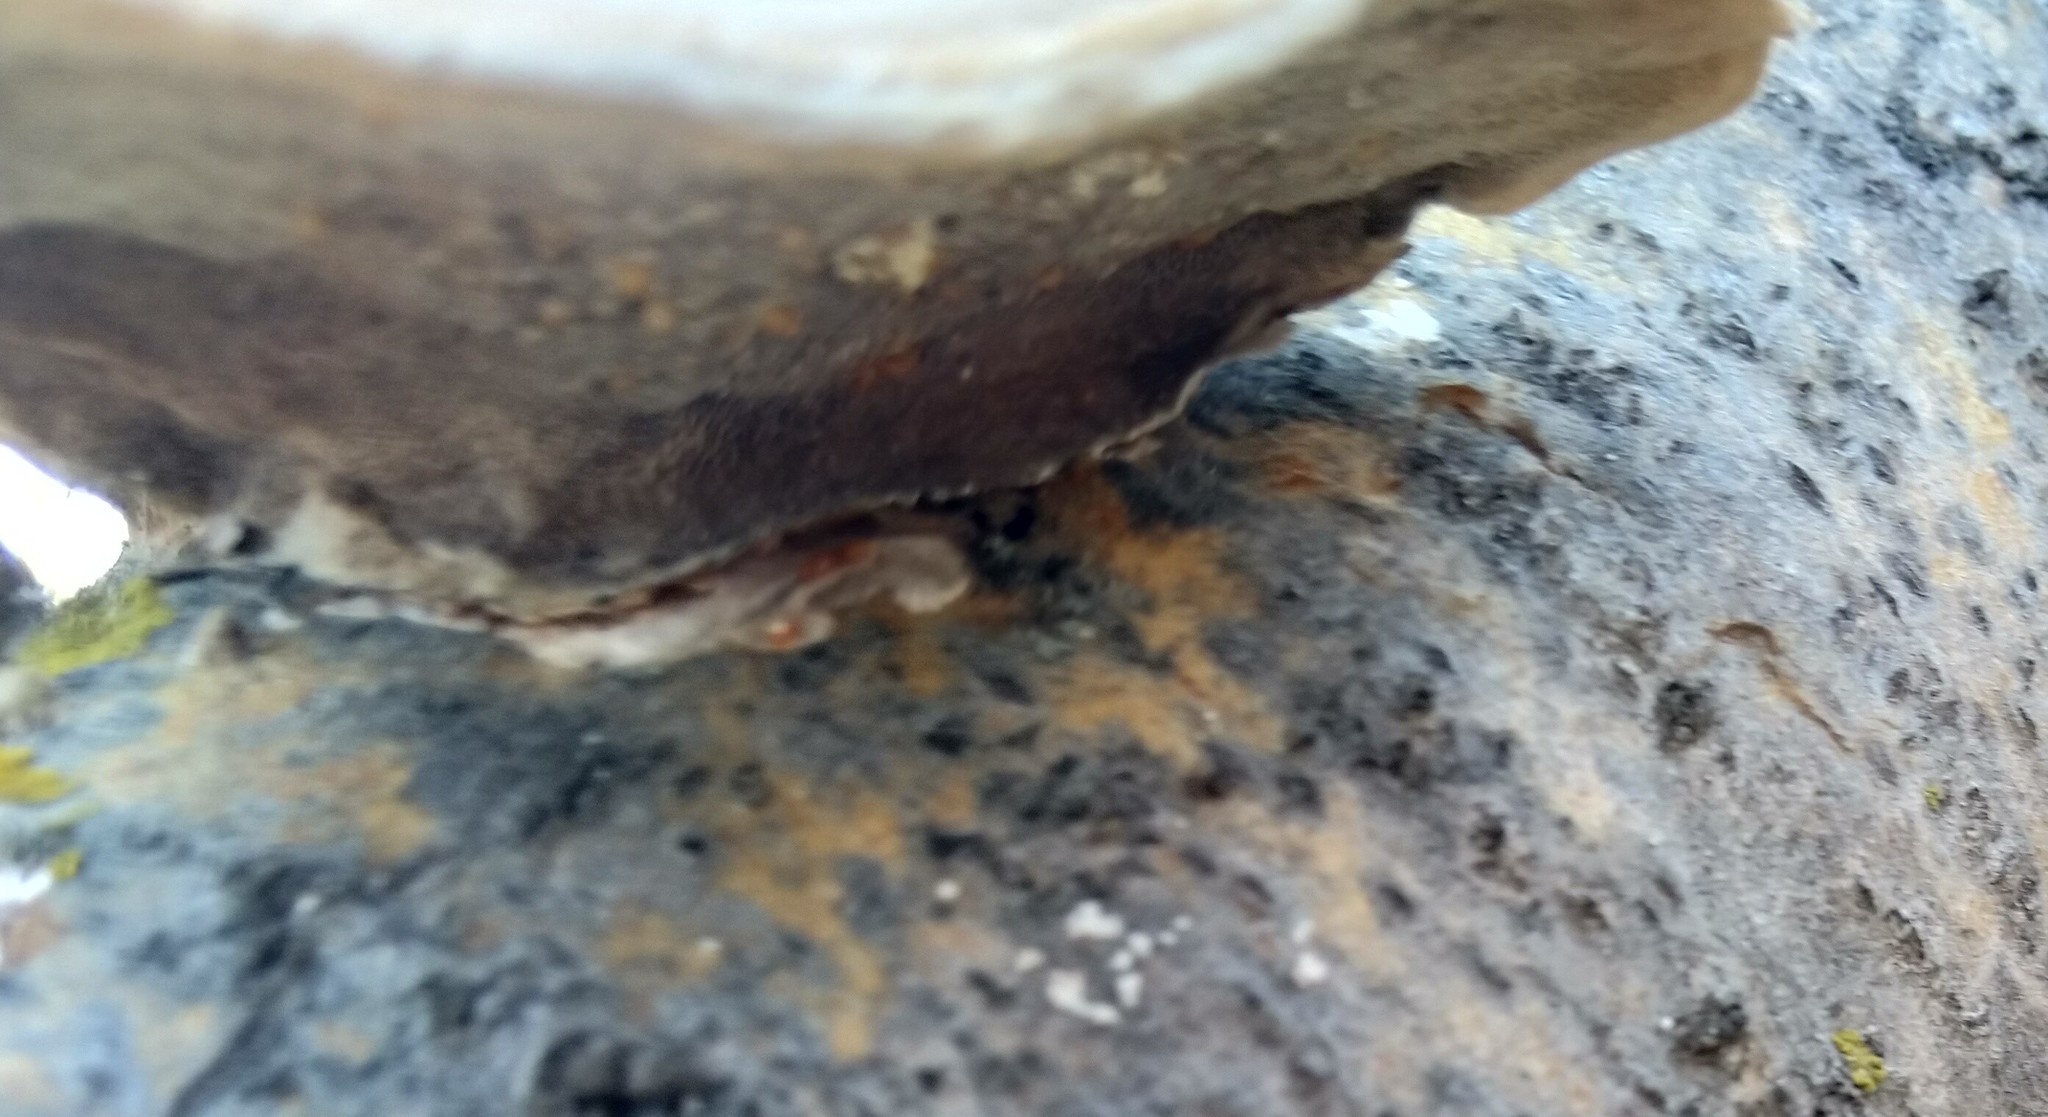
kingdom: Fungi
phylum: Basidiomycota
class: Agaricomycetes
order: Polyporales
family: Polyporaceae
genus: Trametes
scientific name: Trametes hirsuta
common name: Hairy bracket
